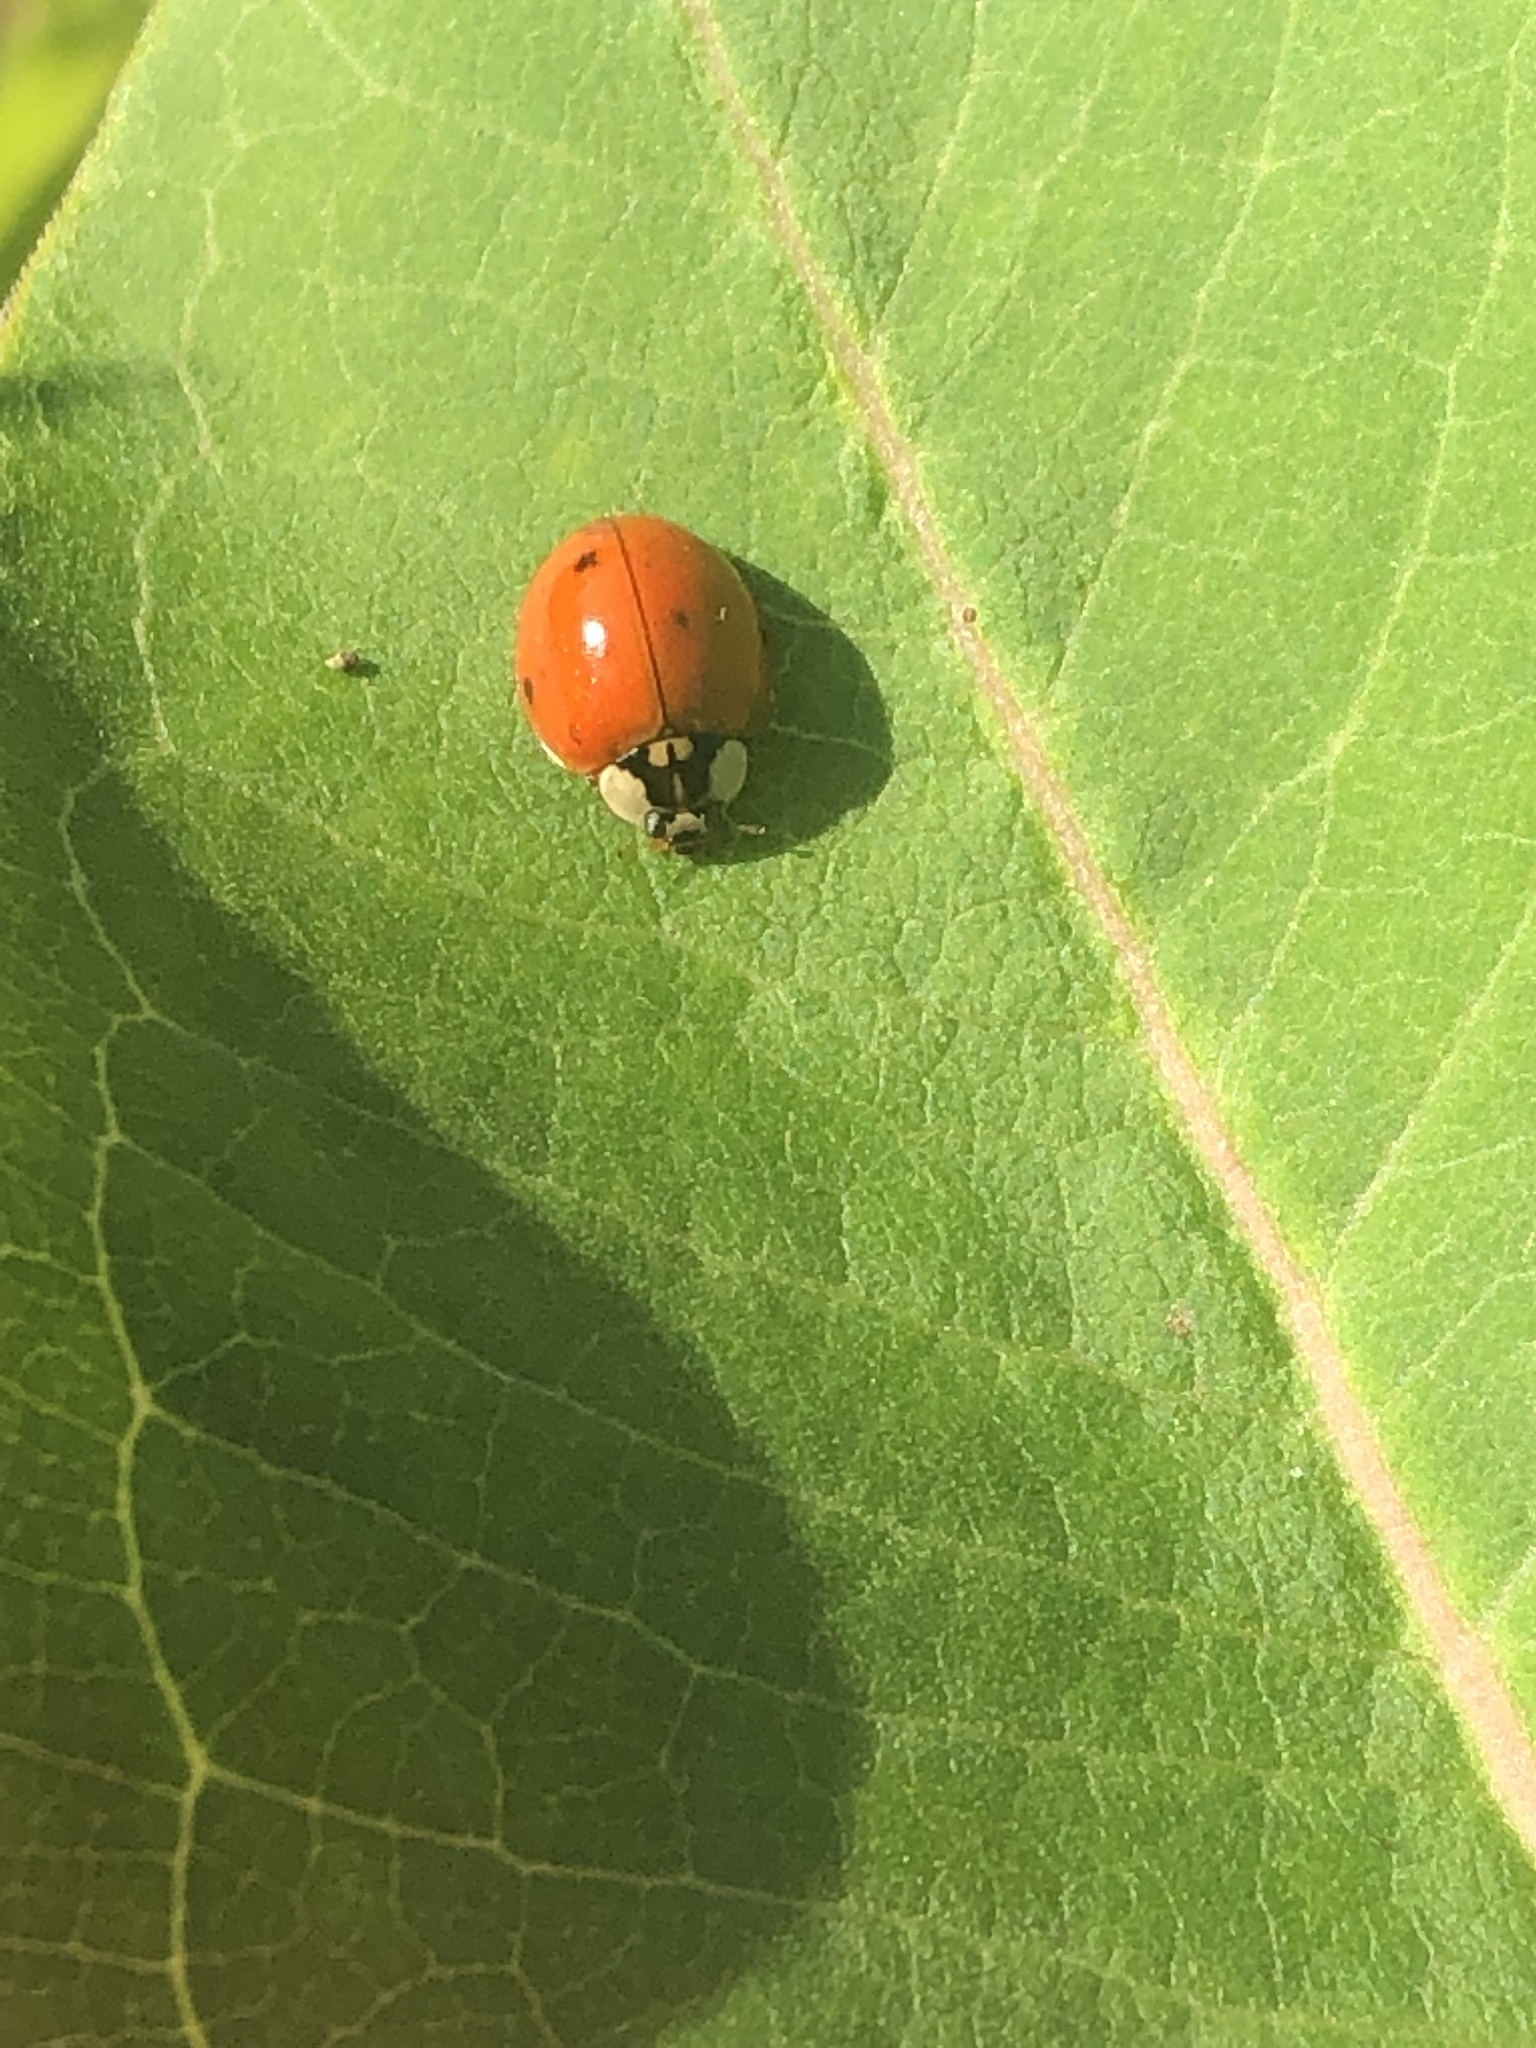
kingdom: Animalia
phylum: Arthropoda
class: Insecta
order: Coleoptera
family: Coccinellidae
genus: Harmonia
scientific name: Harmonia axyridis
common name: Harlequin ladybird
